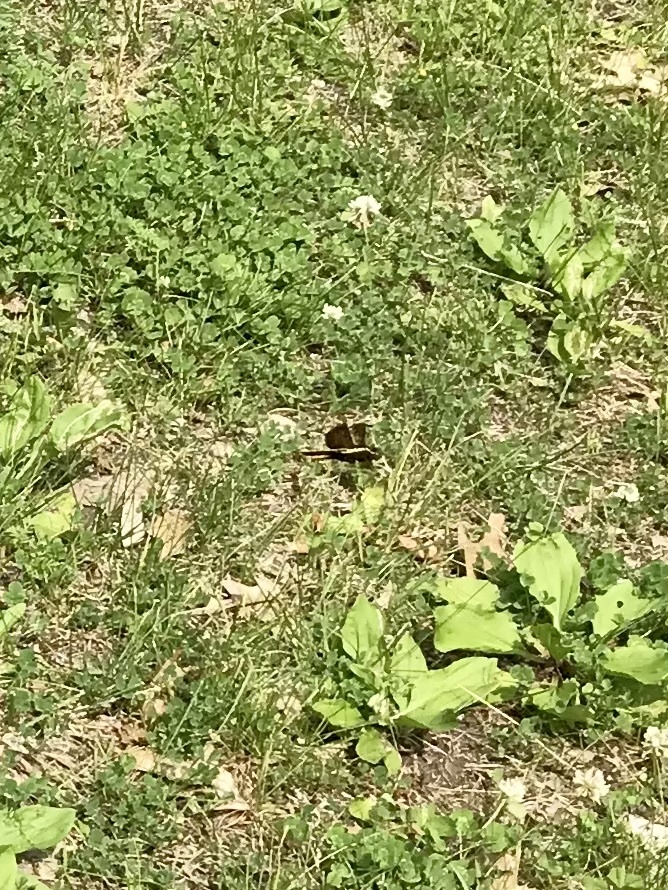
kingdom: Animalia
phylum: Arthropoda
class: Insecta
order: Odonata
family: Libellulidae
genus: Libellula
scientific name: Libellula luctuosa
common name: Widow skimmer
